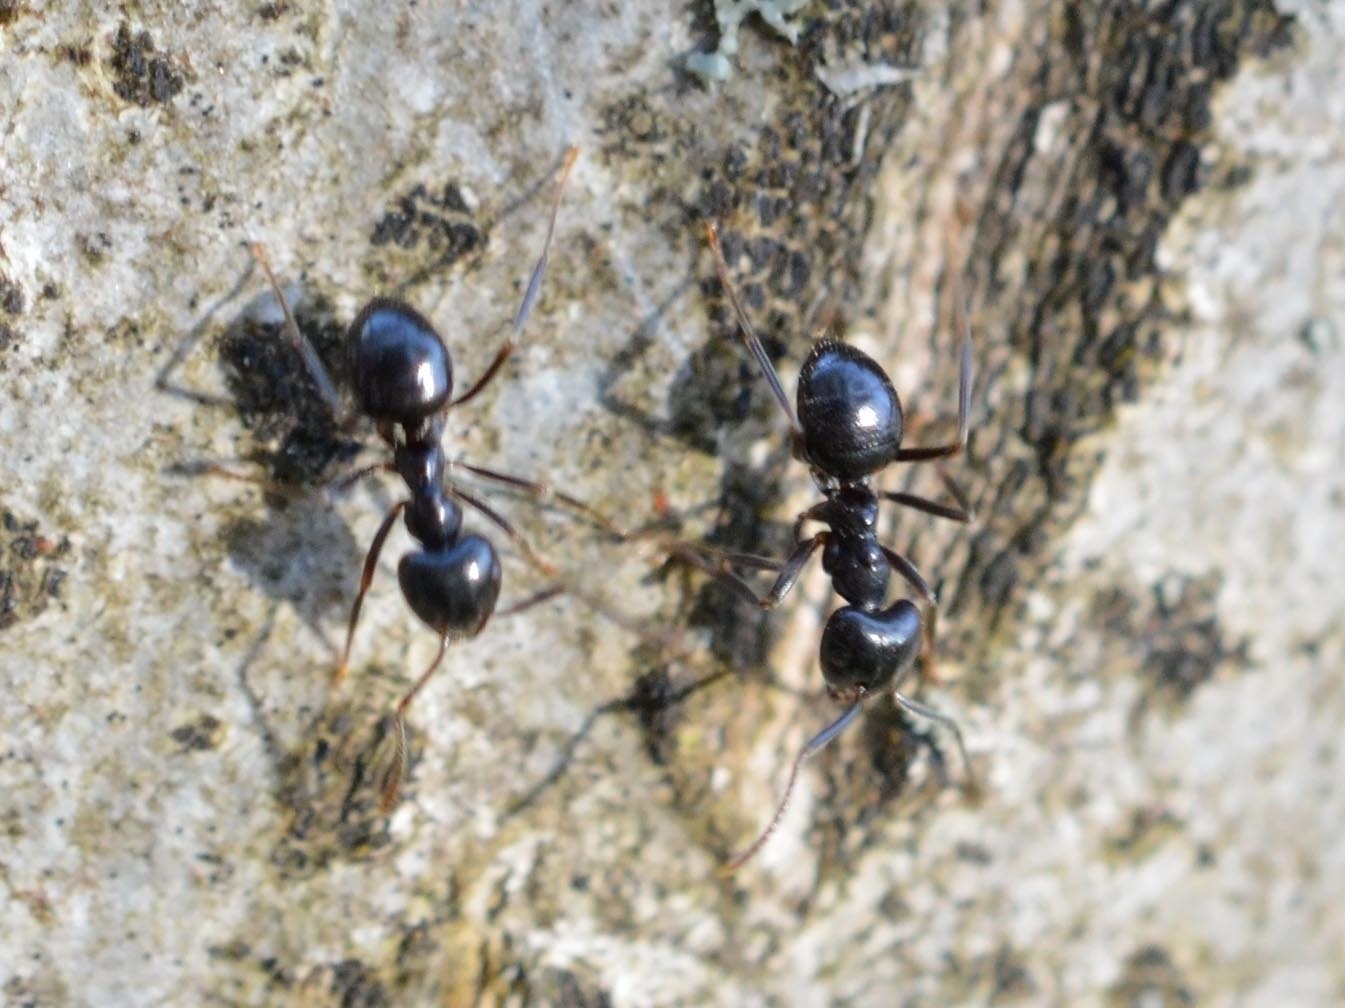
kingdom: Animalia
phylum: Arthropoda
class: Insecta
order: Hymenoptera
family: Formicidae
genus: Lasius
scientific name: Lasius fuliginosus
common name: Jet ant
